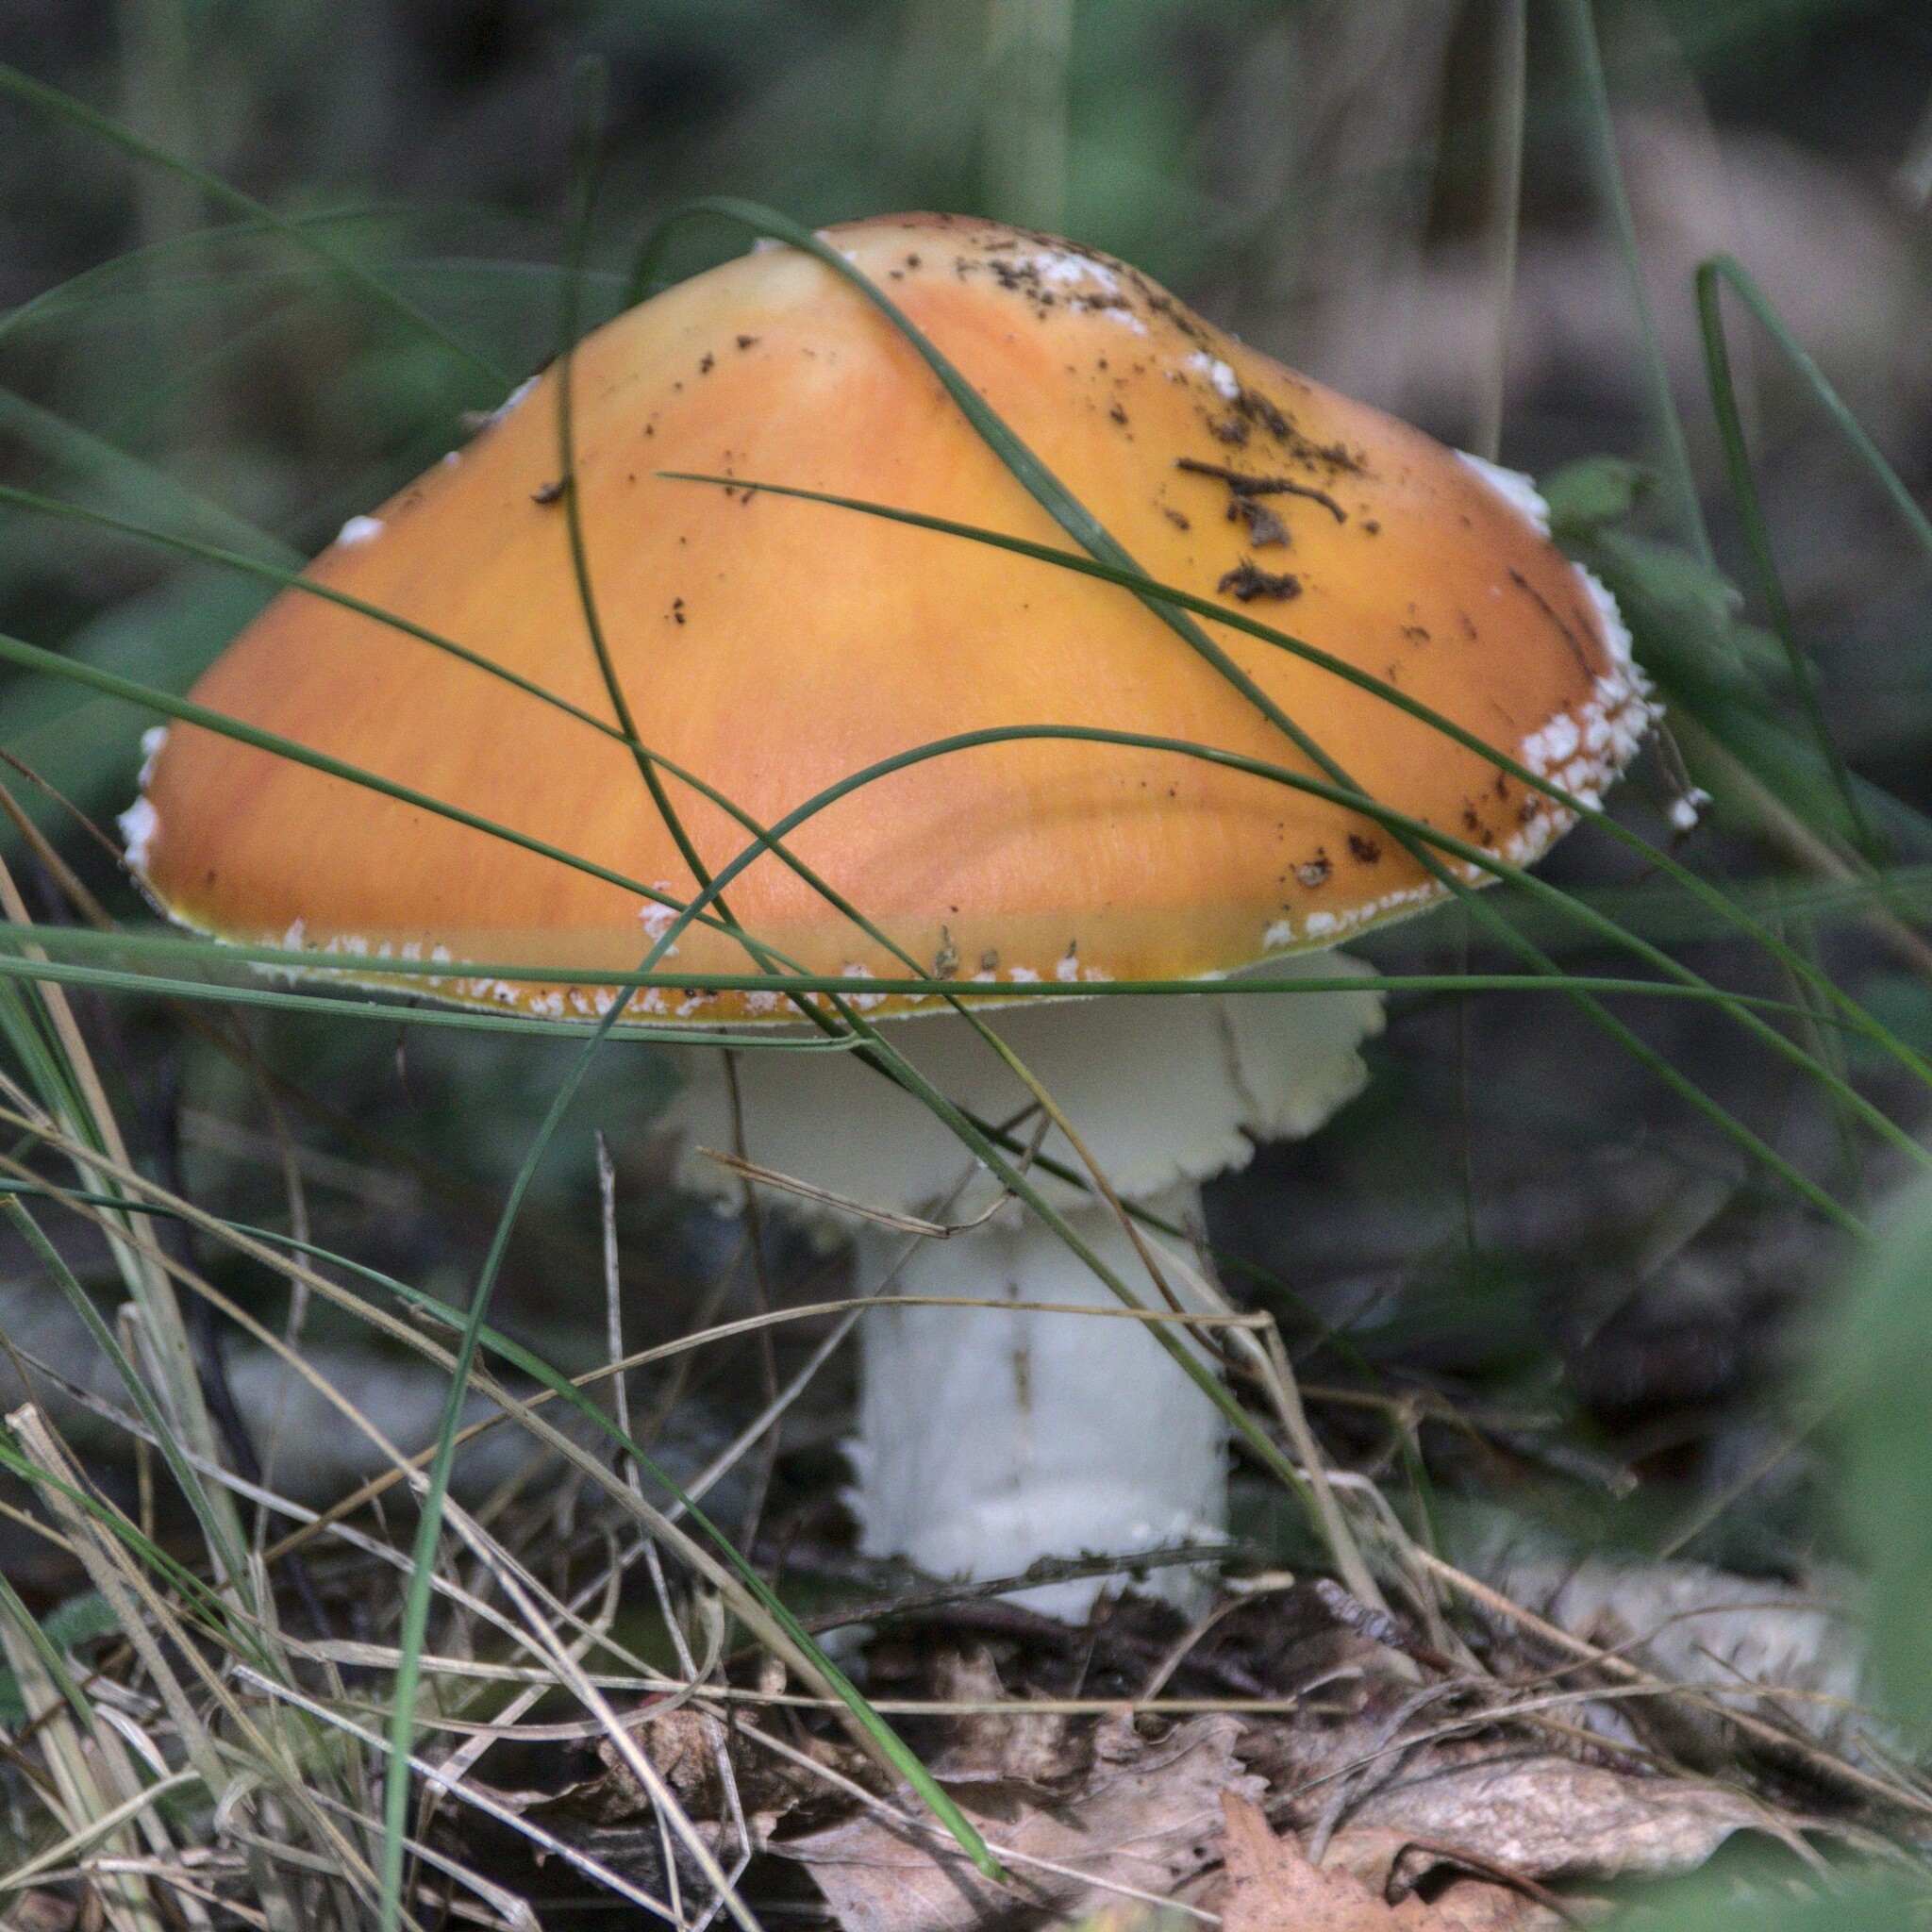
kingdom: Fungi
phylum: Basidiomycota
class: Agaricomycetes
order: Agaricales
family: Amanitaceae
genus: Amanita
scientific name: Amanita muscaria
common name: Fly agaric
